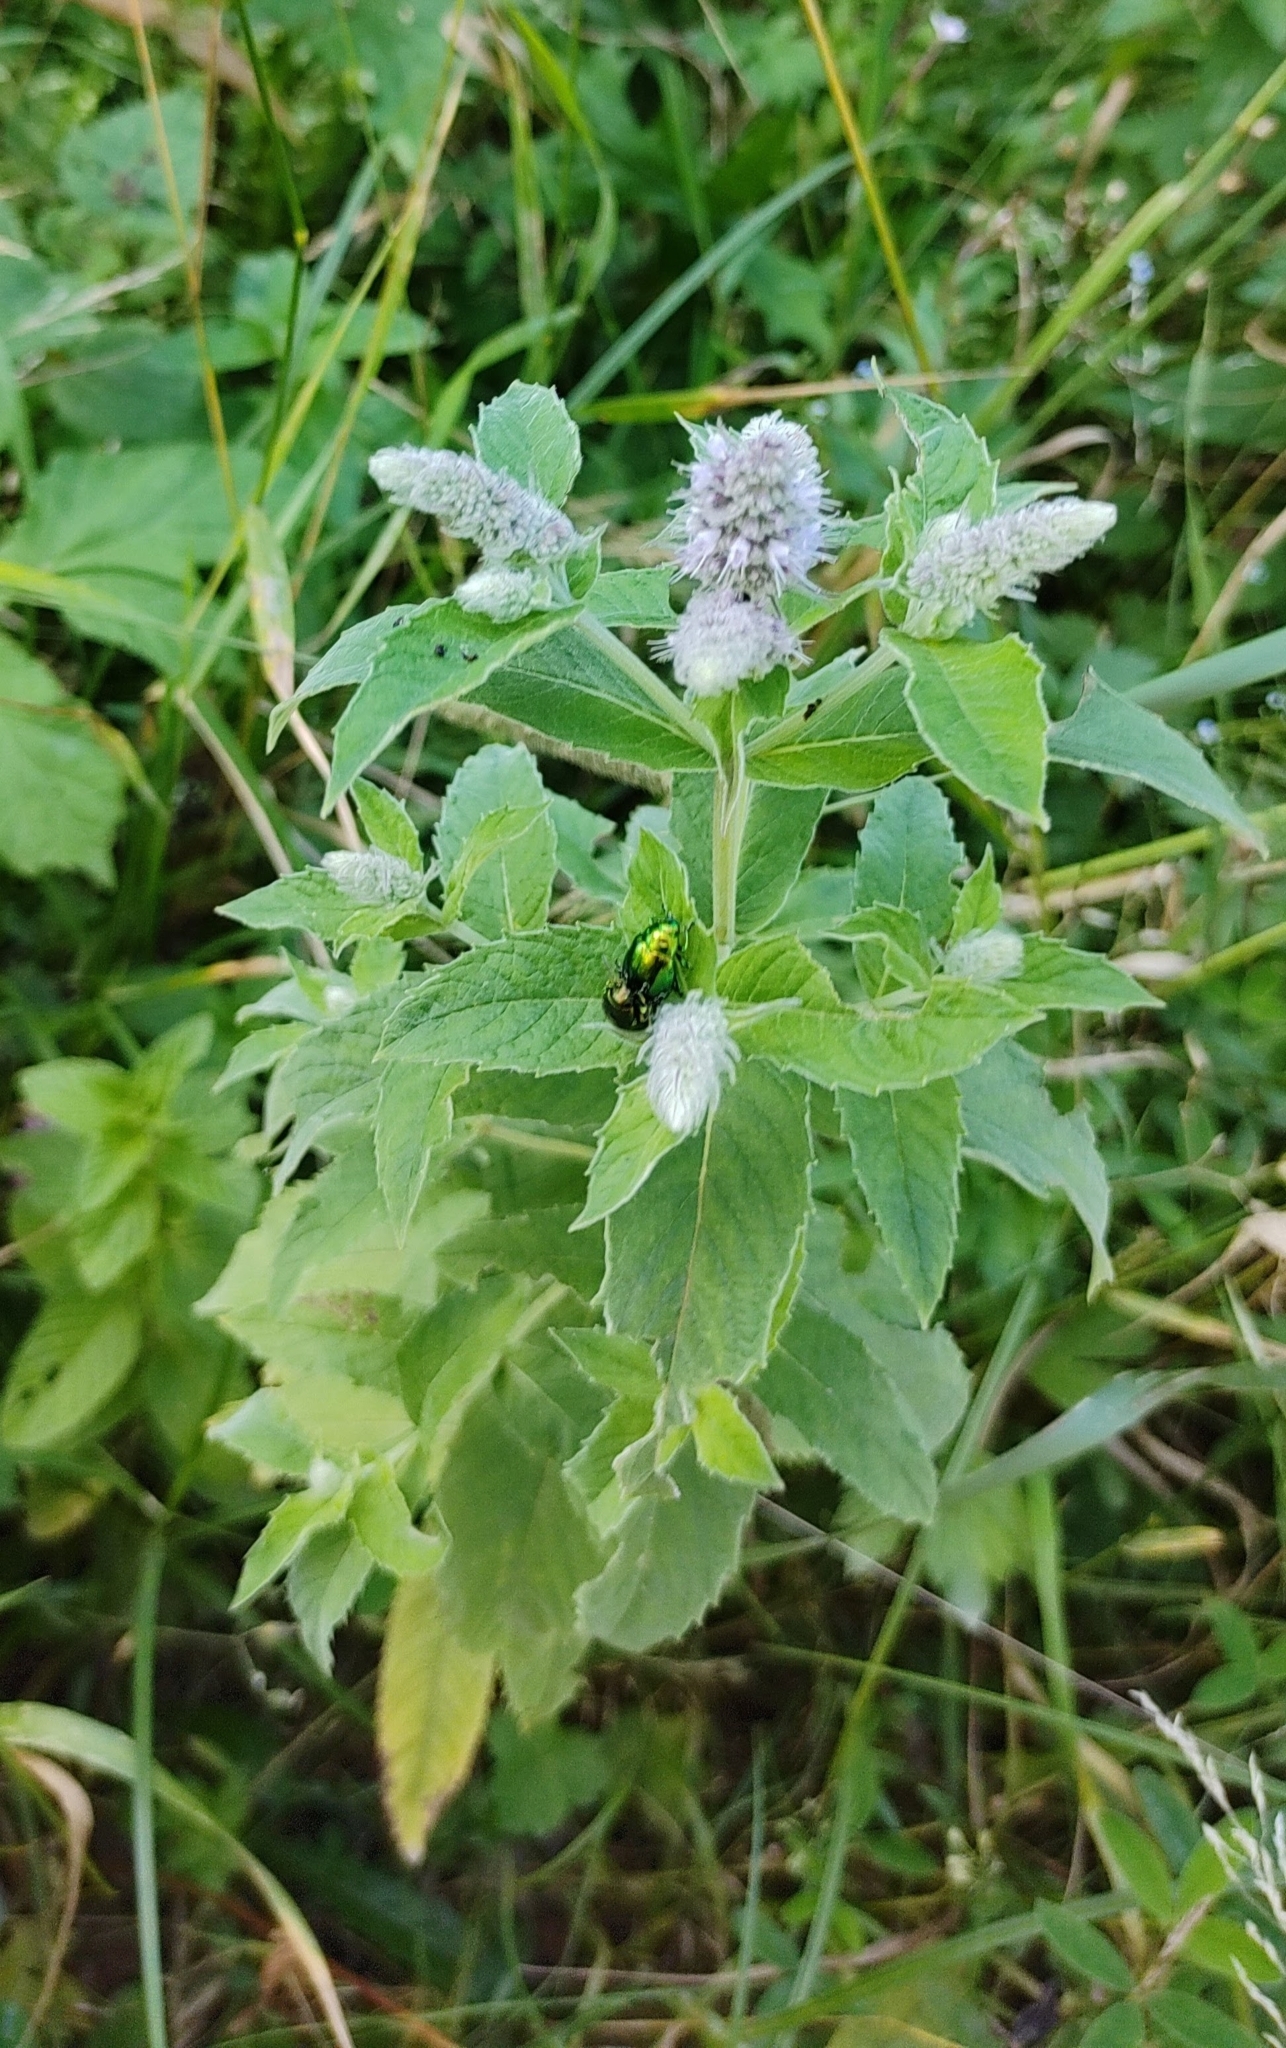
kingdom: Plantae
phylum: Tracheophyta
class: Magnoliopsida
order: Lamiales
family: Lamiaceae
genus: Mentha
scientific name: Mentha longifolia
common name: Horse mint
